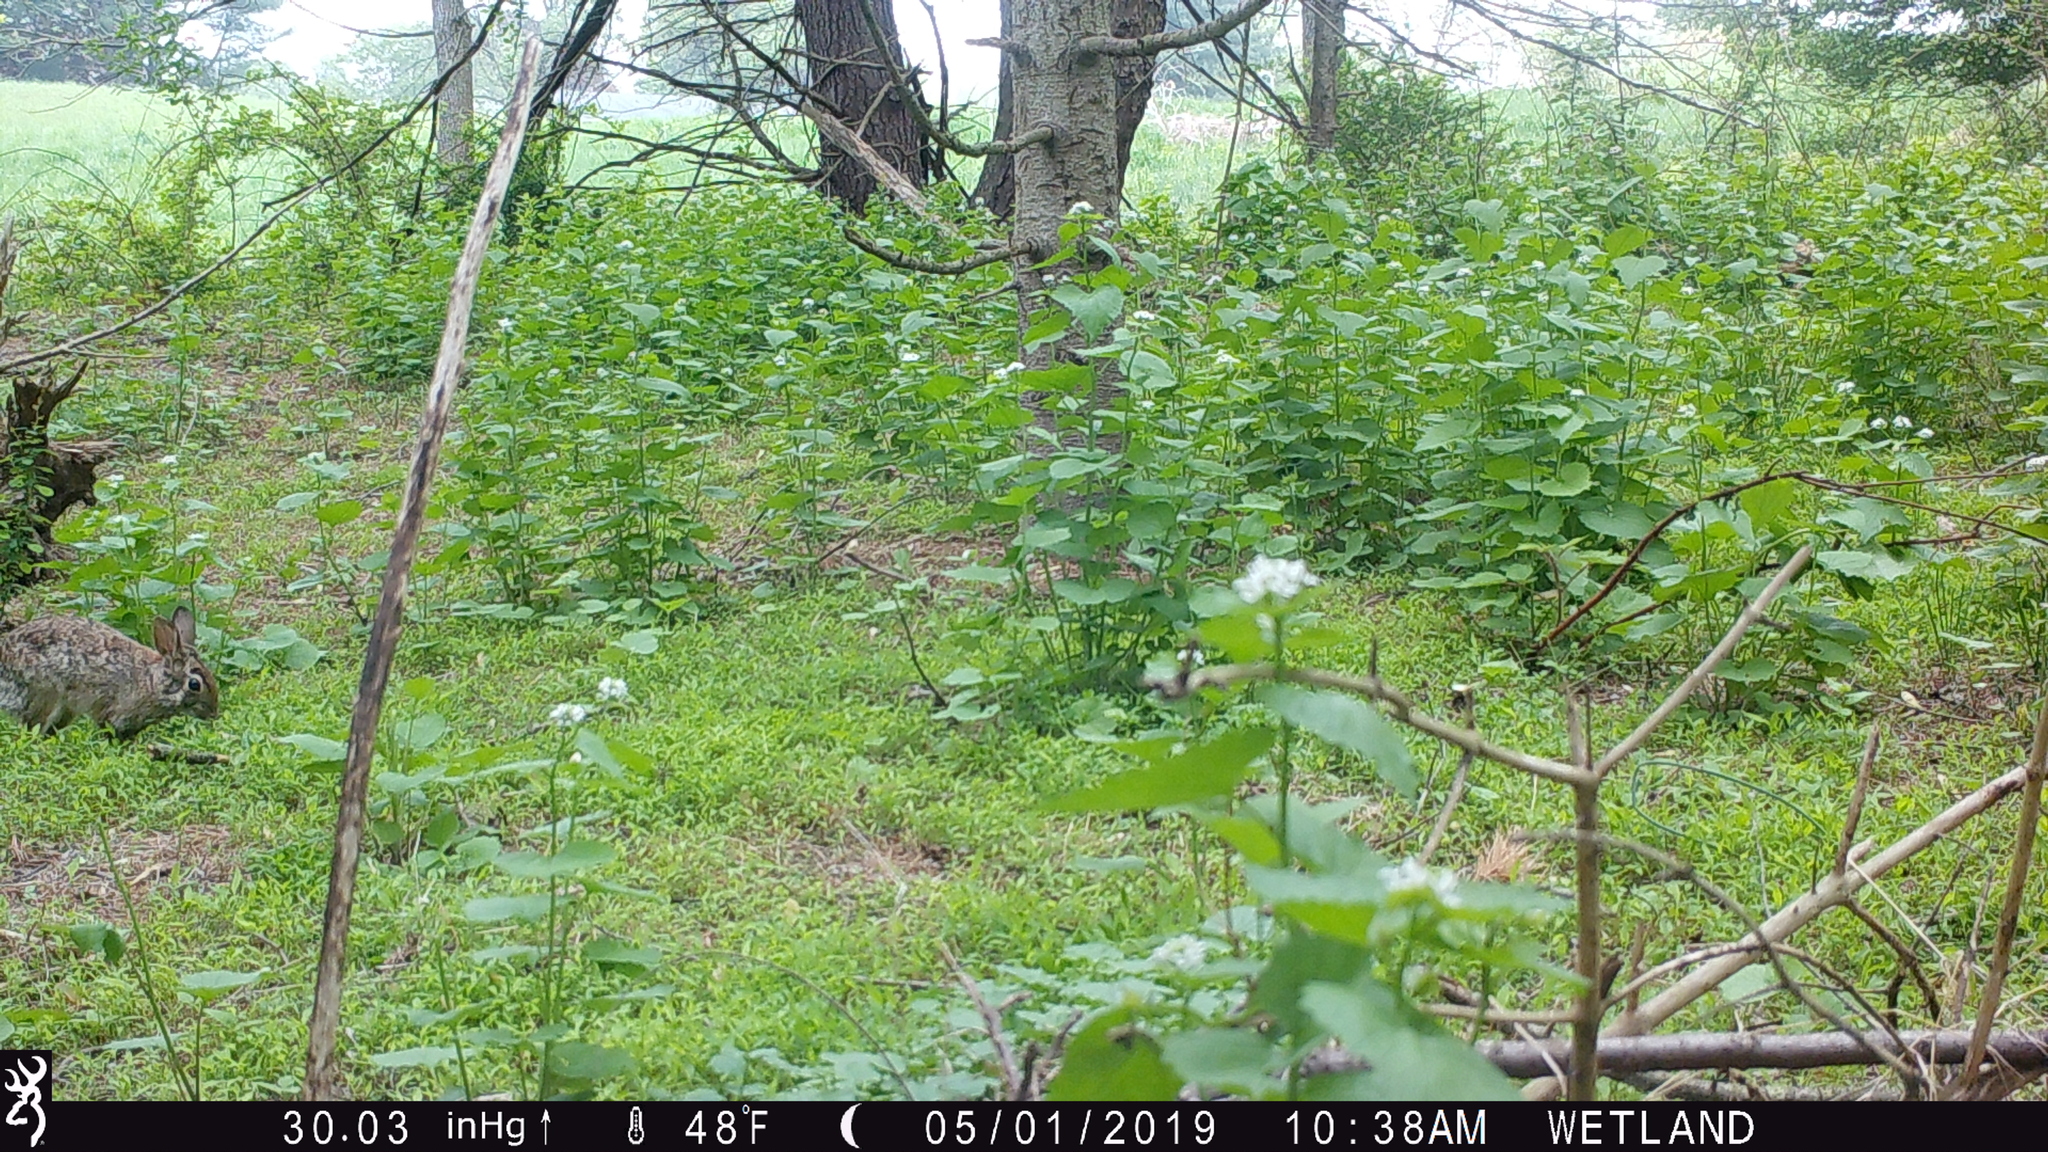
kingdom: Animalia
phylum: Chordata
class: Mammalia
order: Lagomorpha
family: Leporidae
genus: Sylvilagus
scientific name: Sylvilagus floridanus
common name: Eastern cottontail
